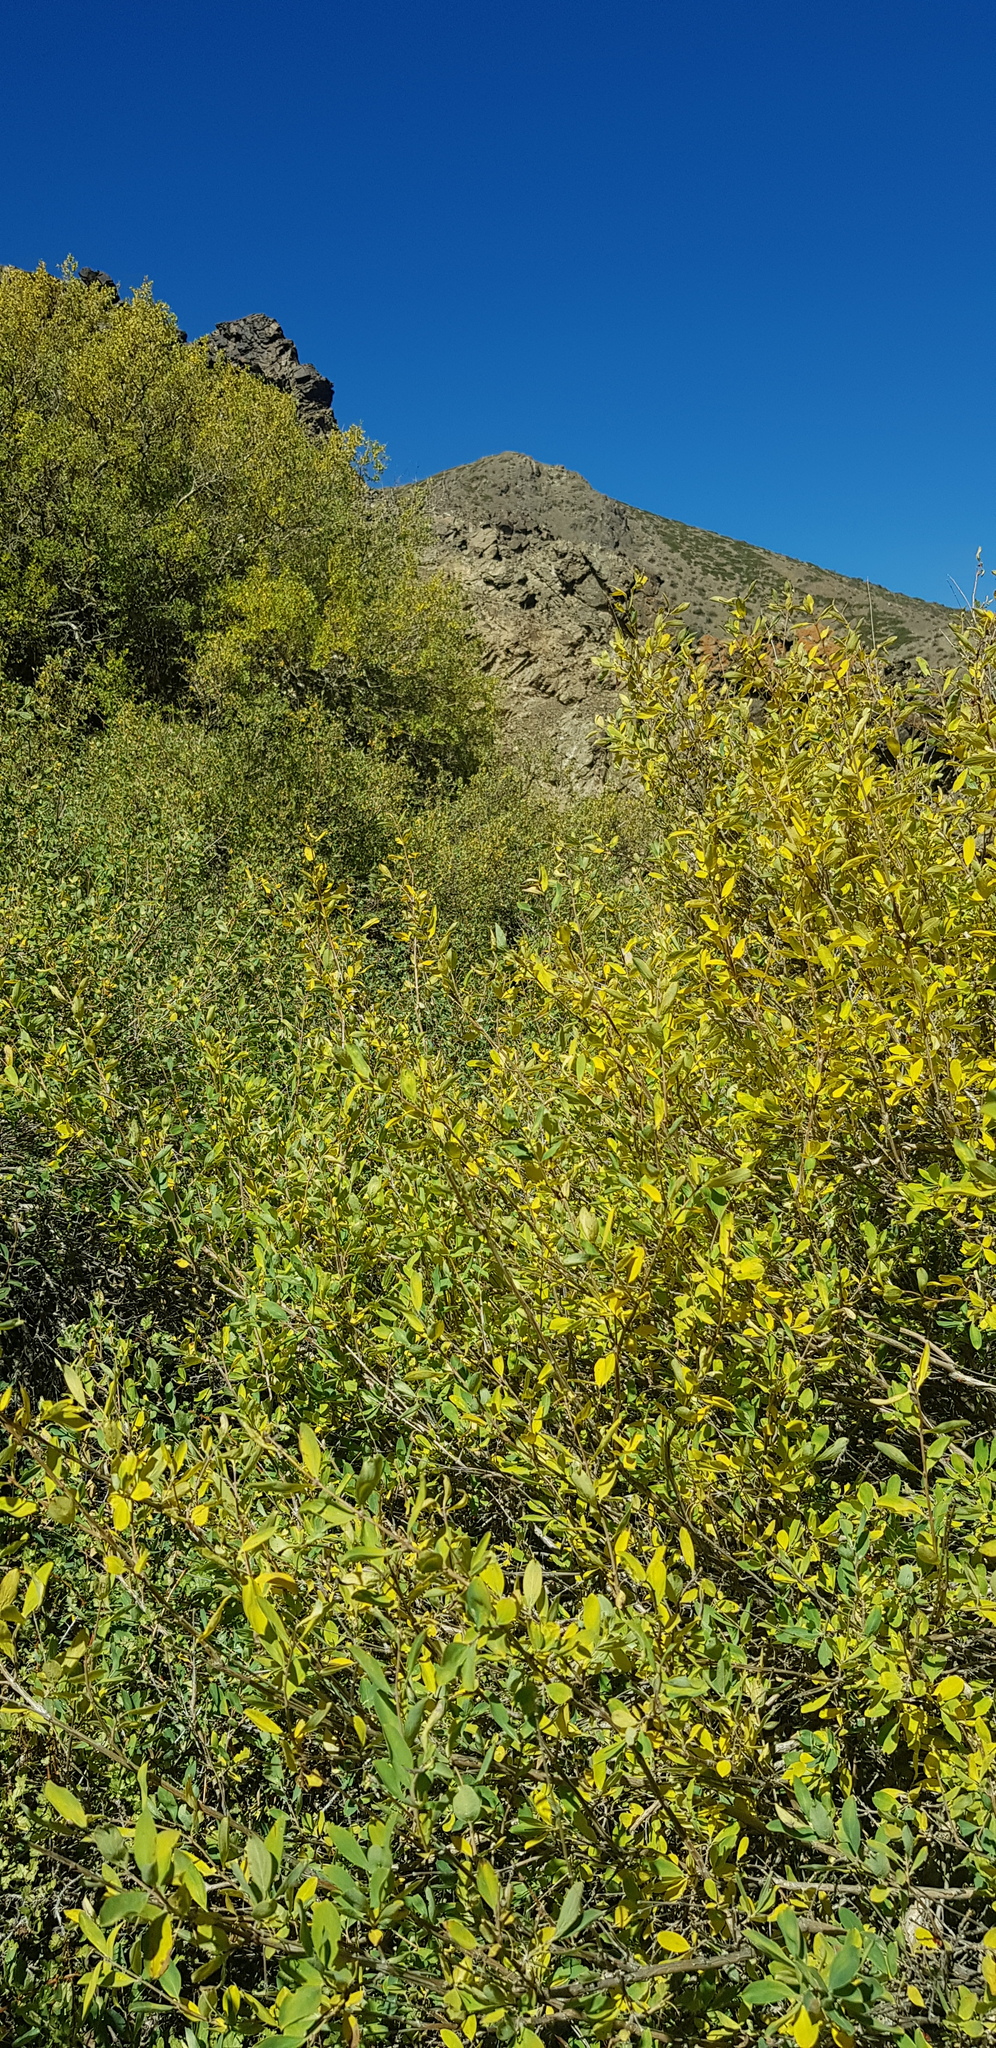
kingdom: Plantae
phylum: Tracheophyta
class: Magnoliopsida
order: Dipsacales
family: Caprifoliaceae
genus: Lonicera
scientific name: Lonicera microphylla
